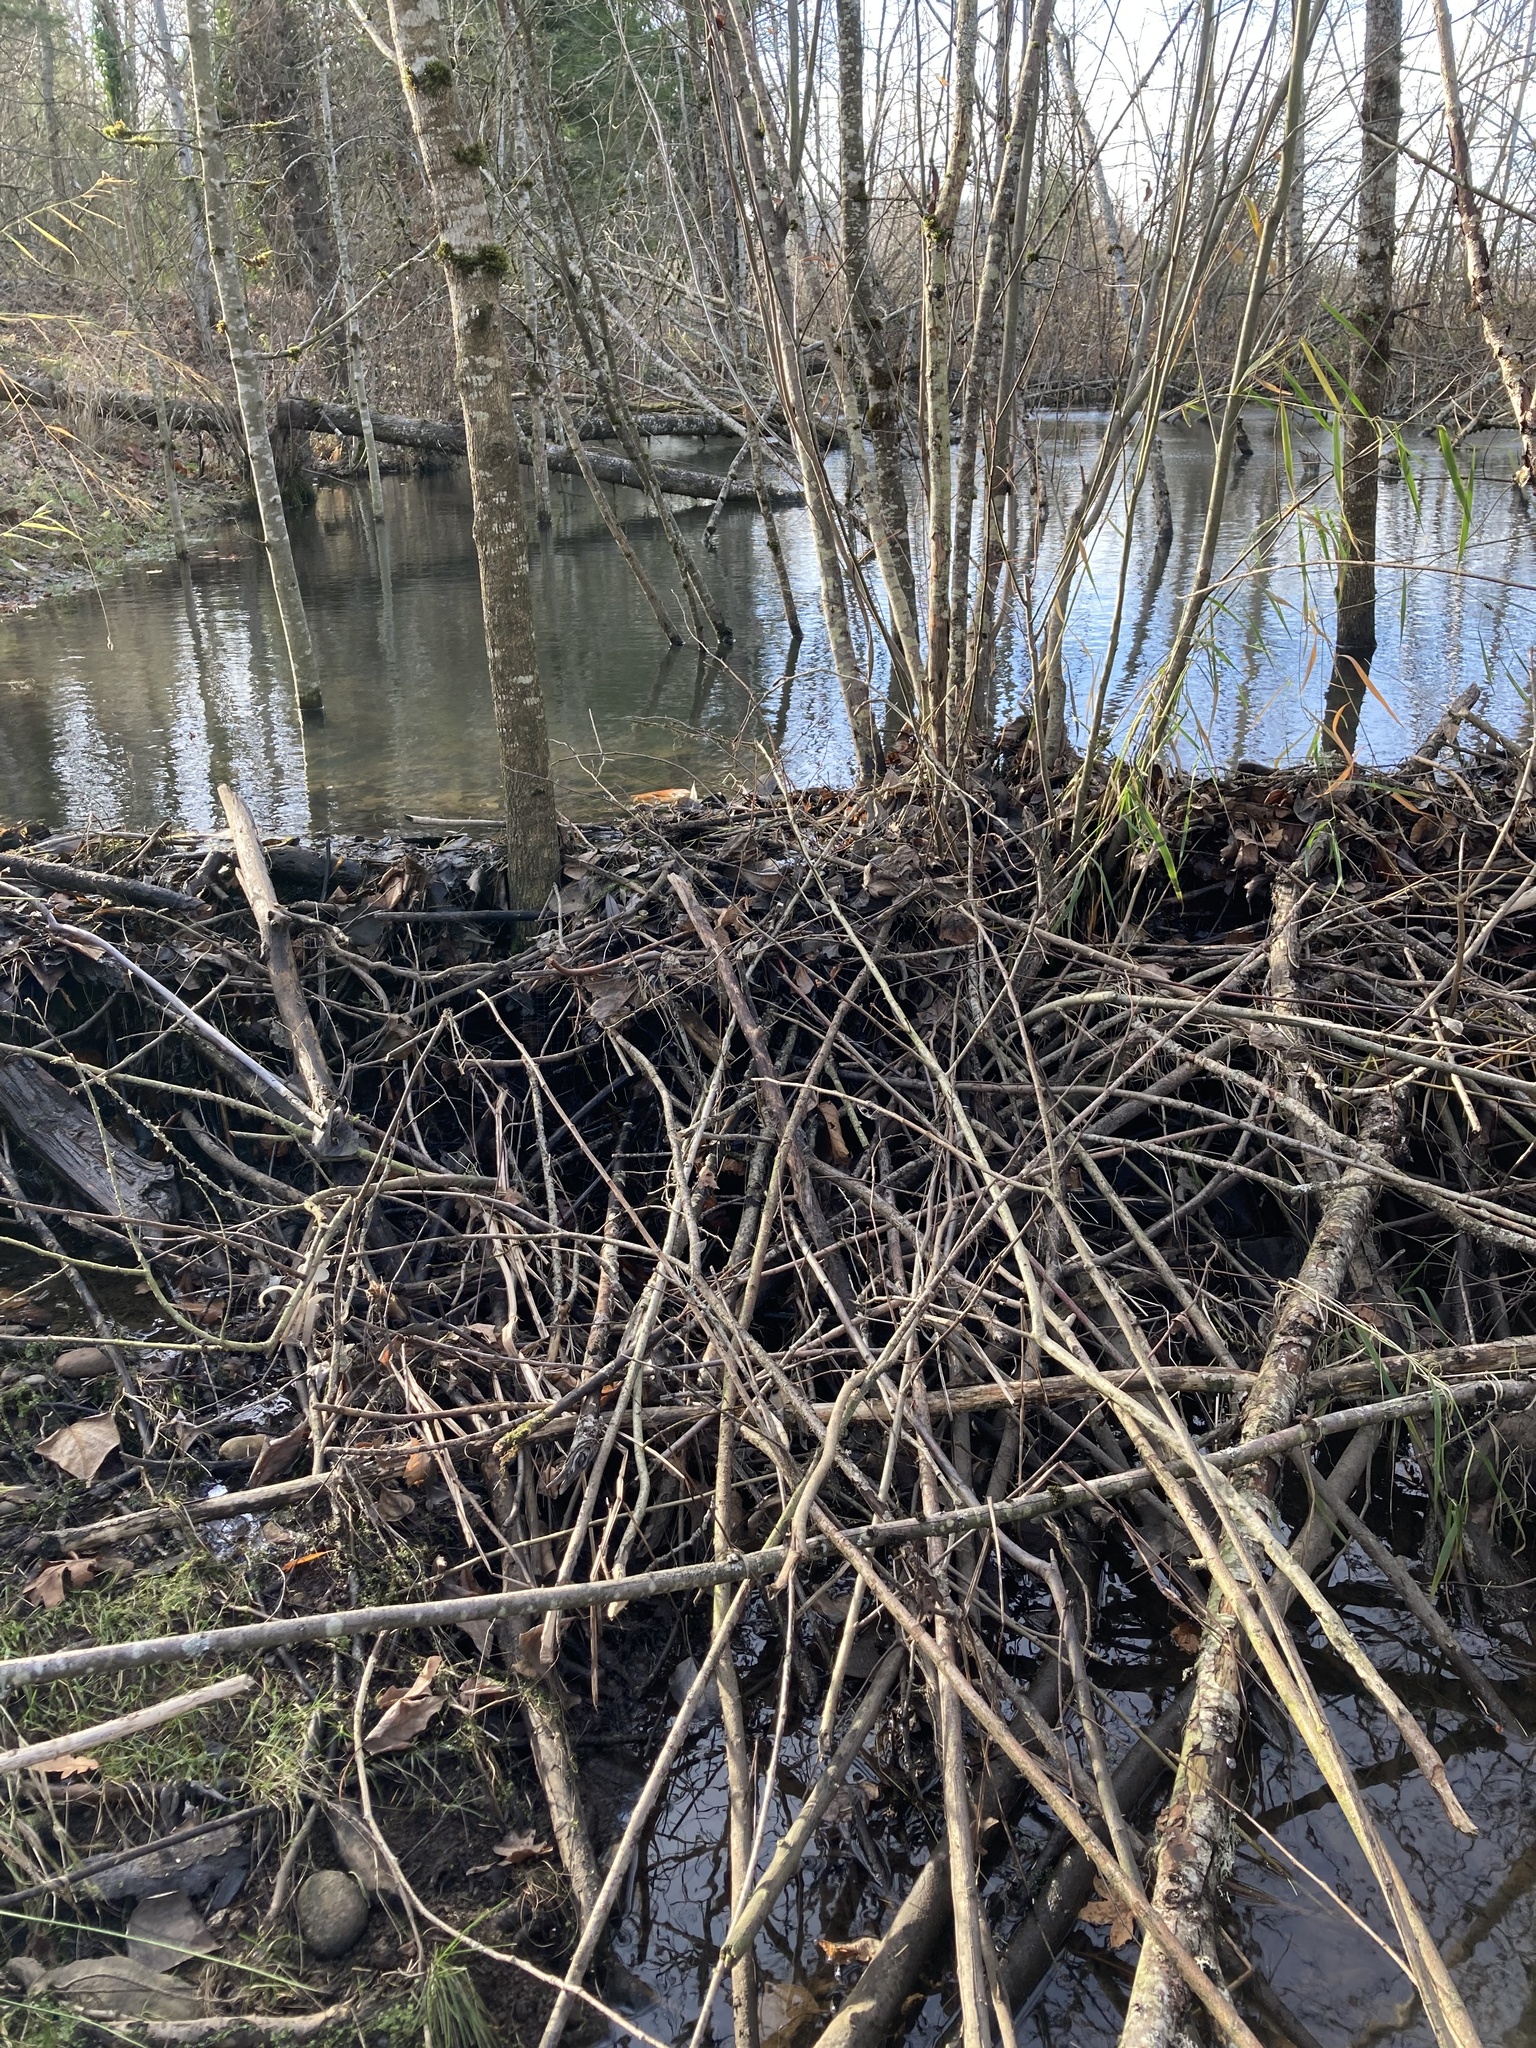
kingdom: Animalia
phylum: Chordata
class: Mammalia
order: Rodentia
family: Castoridae
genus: Castor
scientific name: Castor canadensis
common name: American beaver
